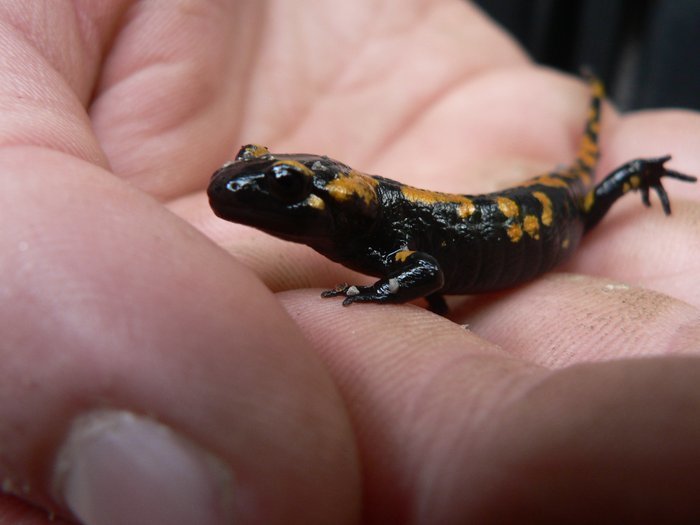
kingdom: Animalia
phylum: Chordata
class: Amphibia
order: Caudata
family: Salamandridae
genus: Salamandra
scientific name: Salamandra salamandra
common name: Fire salamander
